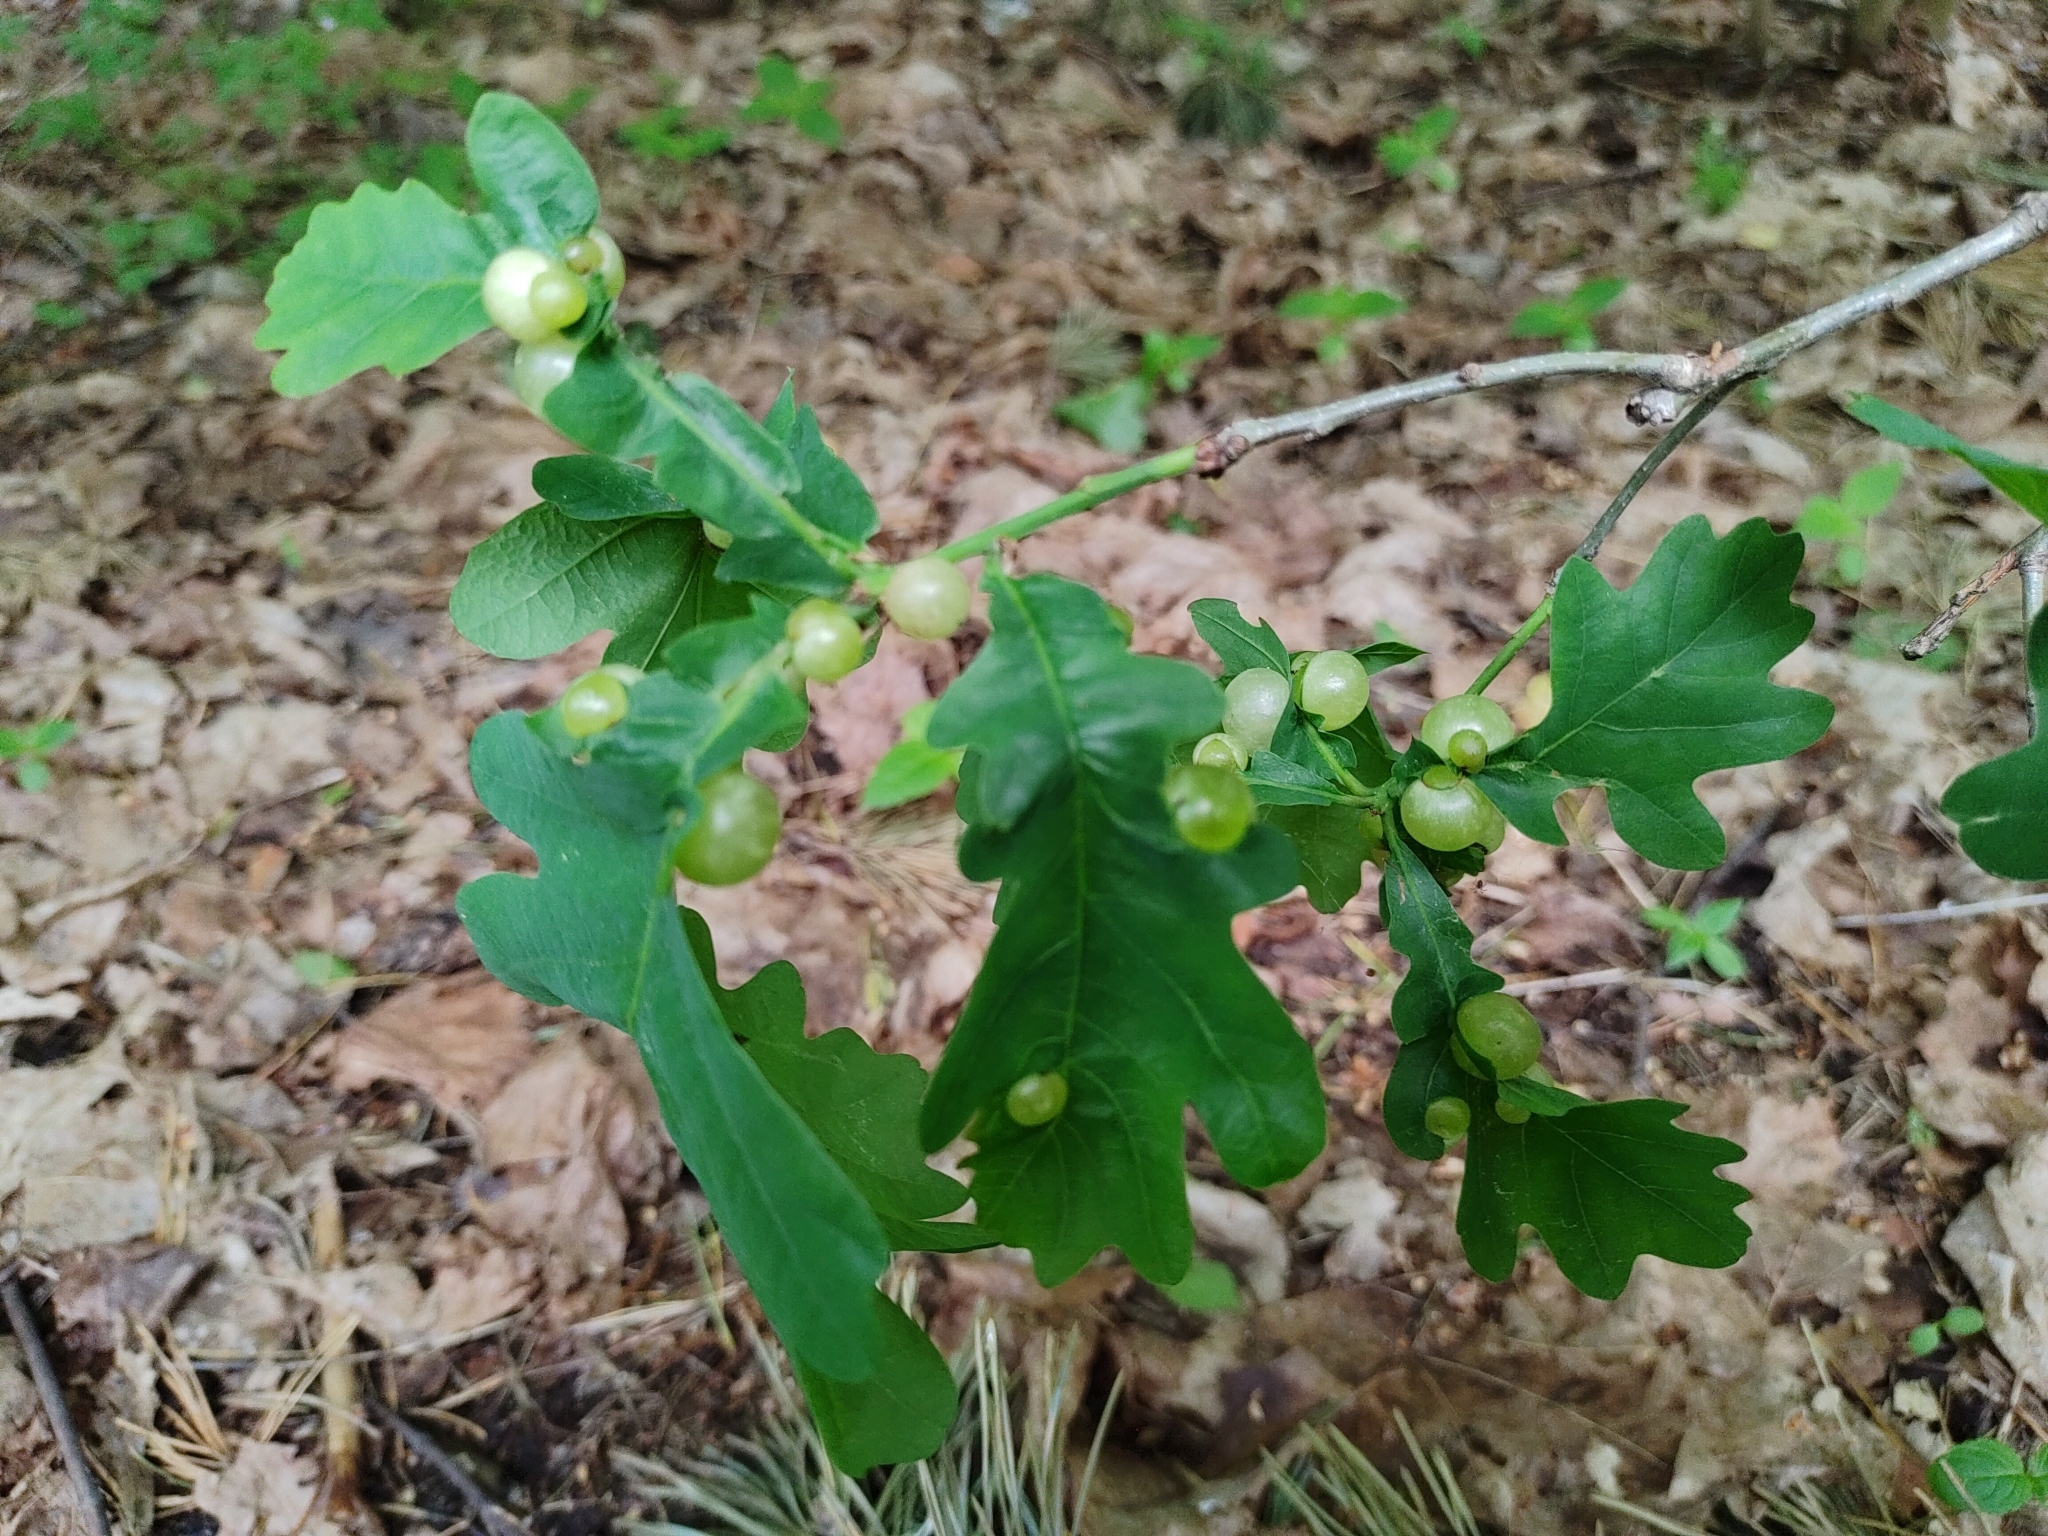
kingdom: Animalia
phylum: Arthropoda
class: Insecta
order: Hymenoptera
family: Cynipidae
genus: Neuroterus
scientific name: Neuroterus quercusbaccarum
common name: Common spangle gall
